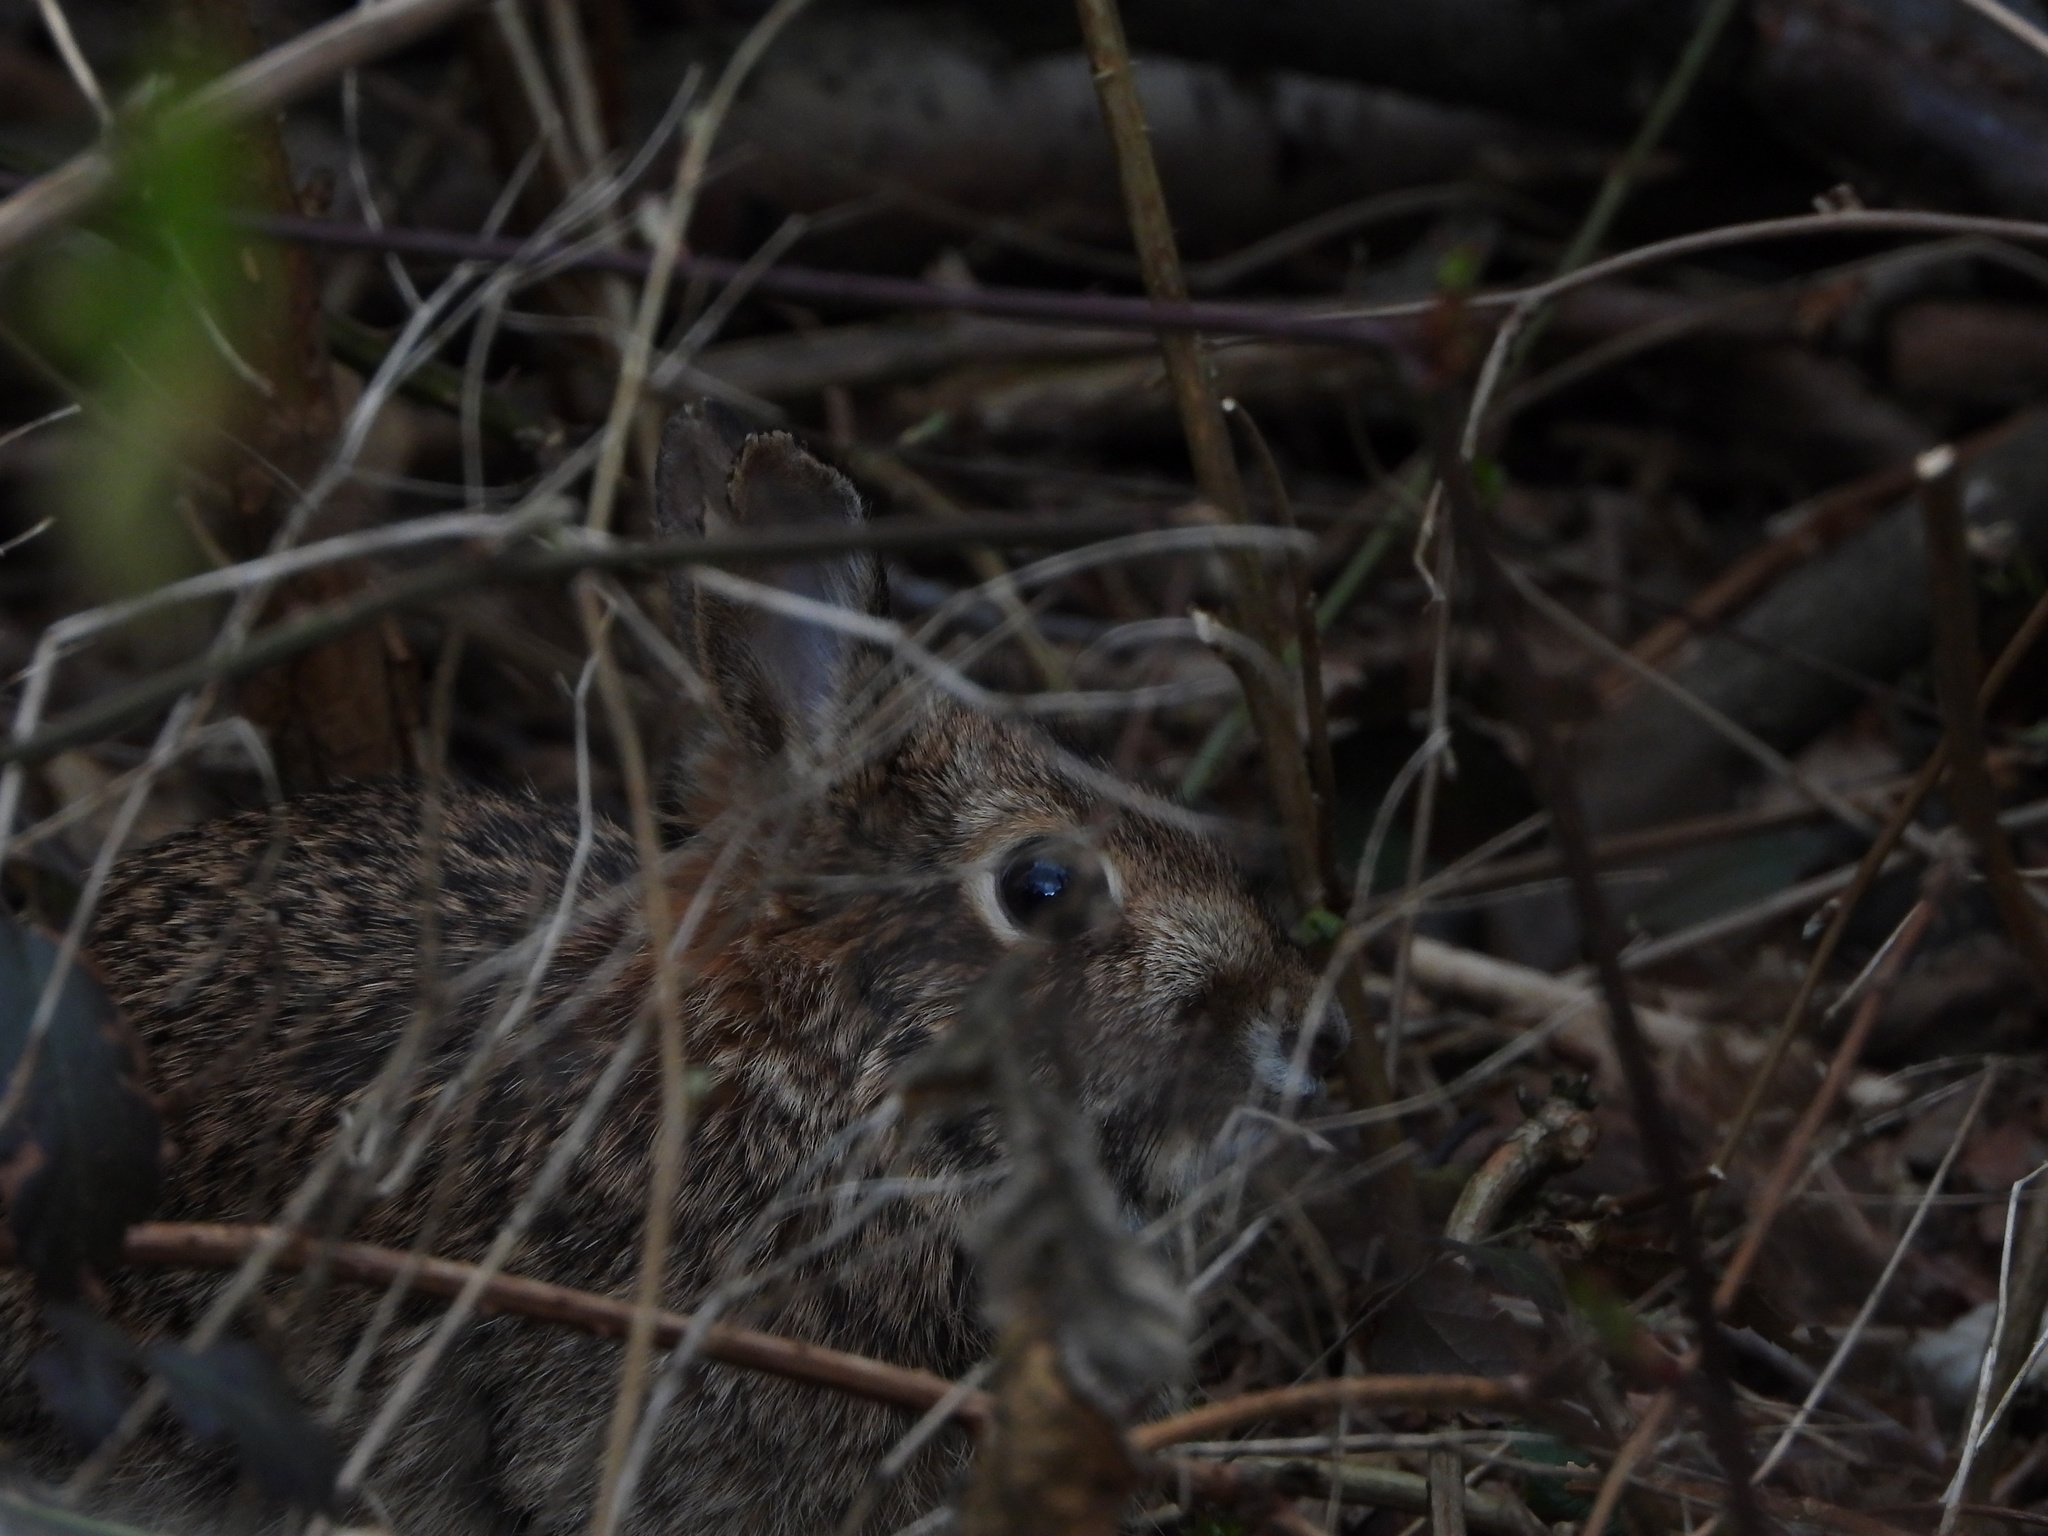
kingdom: Animalia
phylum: Chordata
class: Mammalia
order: Lagomorpha
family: Leporidae
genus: Sylvilagus
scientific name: Sylvilagus floridanus
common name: Eastern cottontail
